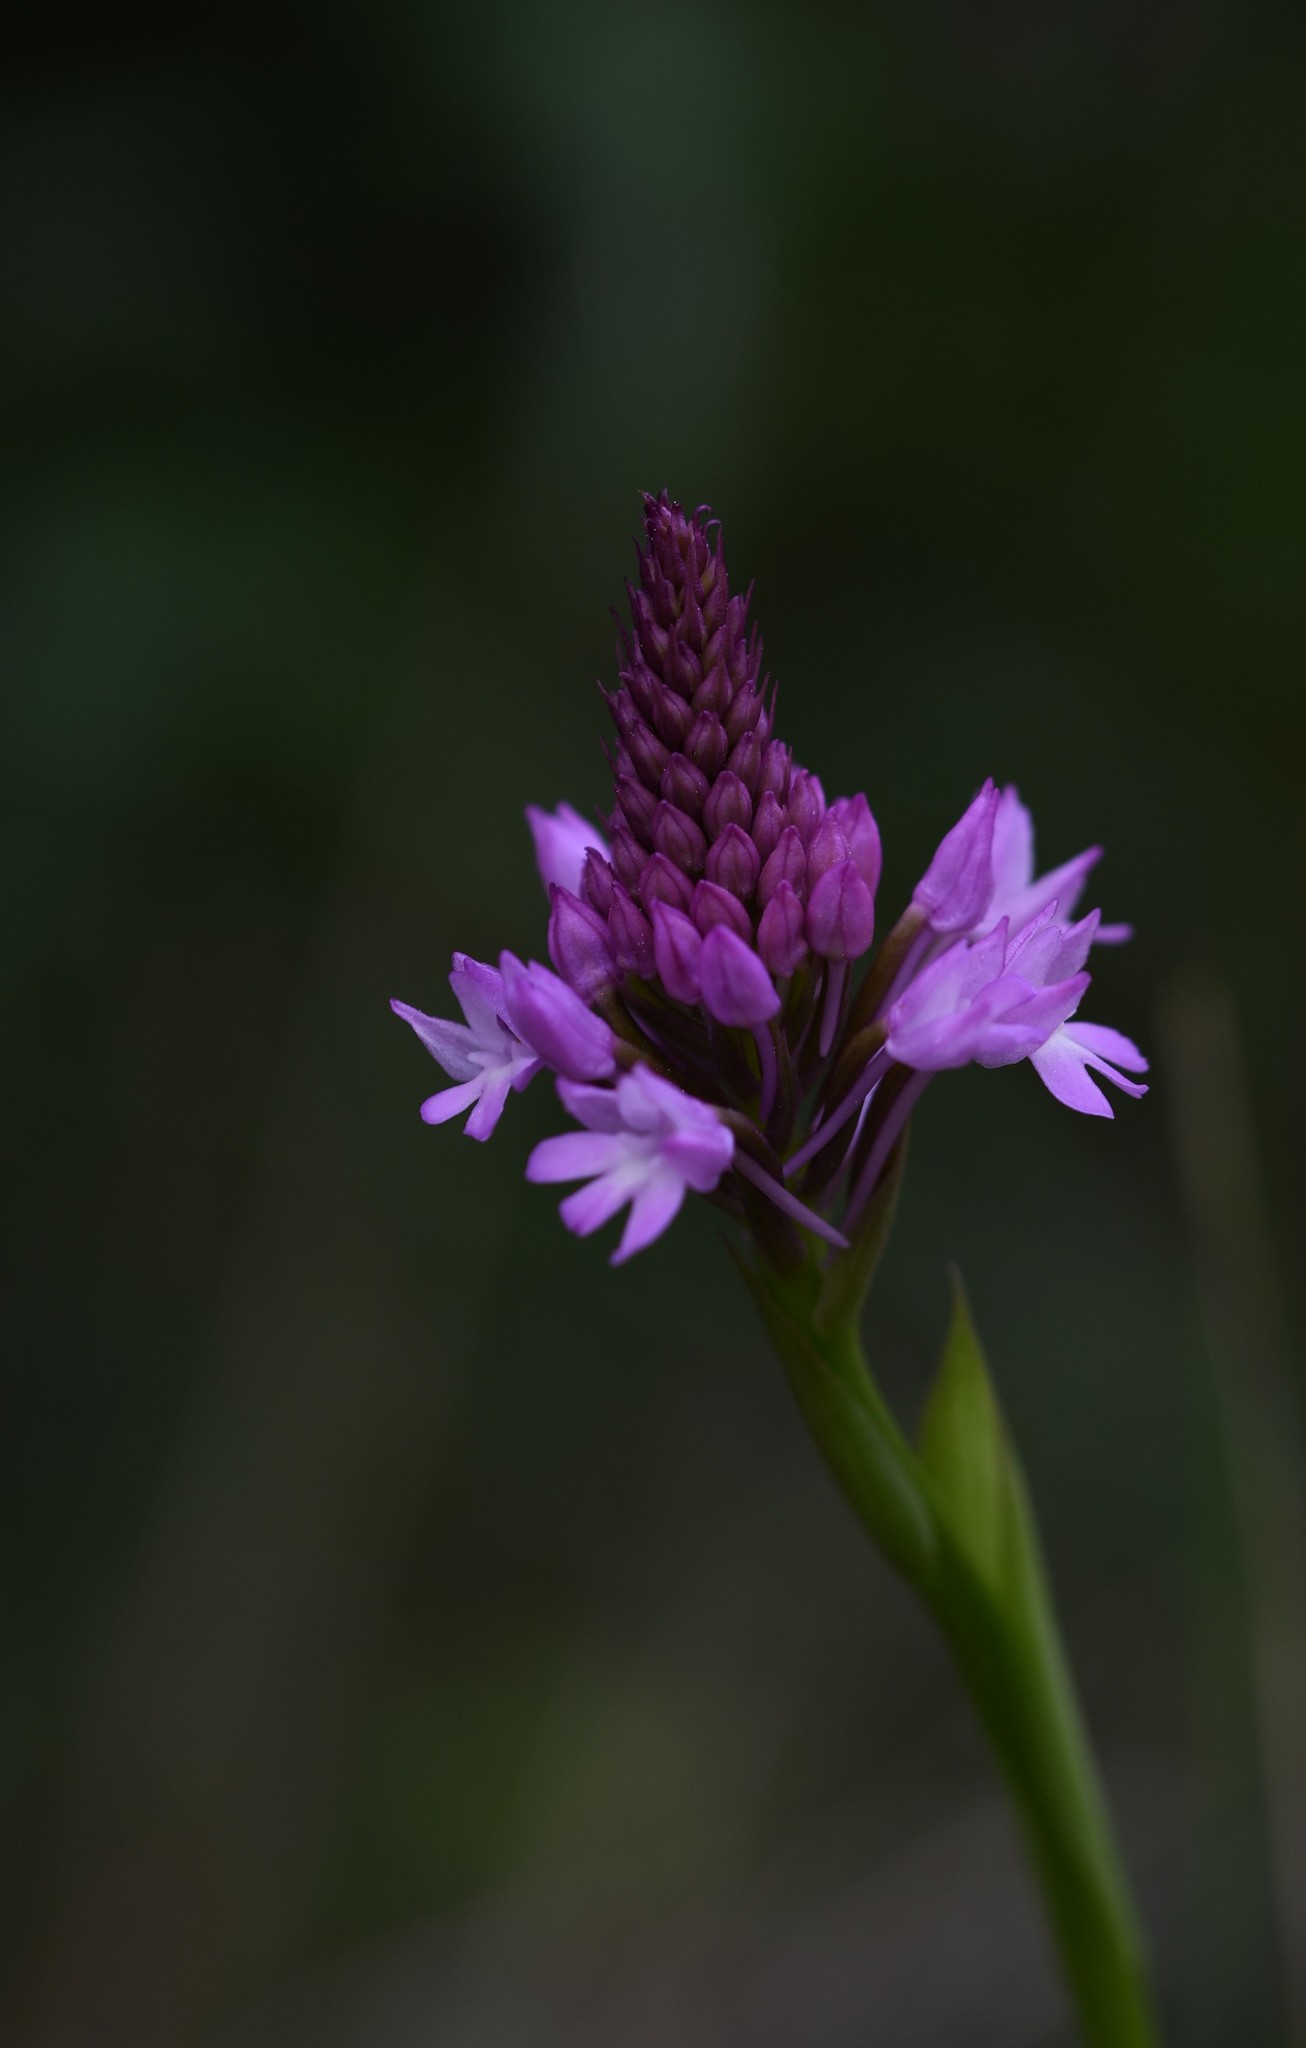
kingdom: Plantae
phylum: Tracheophyta
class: Liliopsida
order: Asparagales
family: Orchidaceae
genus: Anacamptis
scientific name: Anacamptis pyramidalis
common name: Pyramidal orchid
